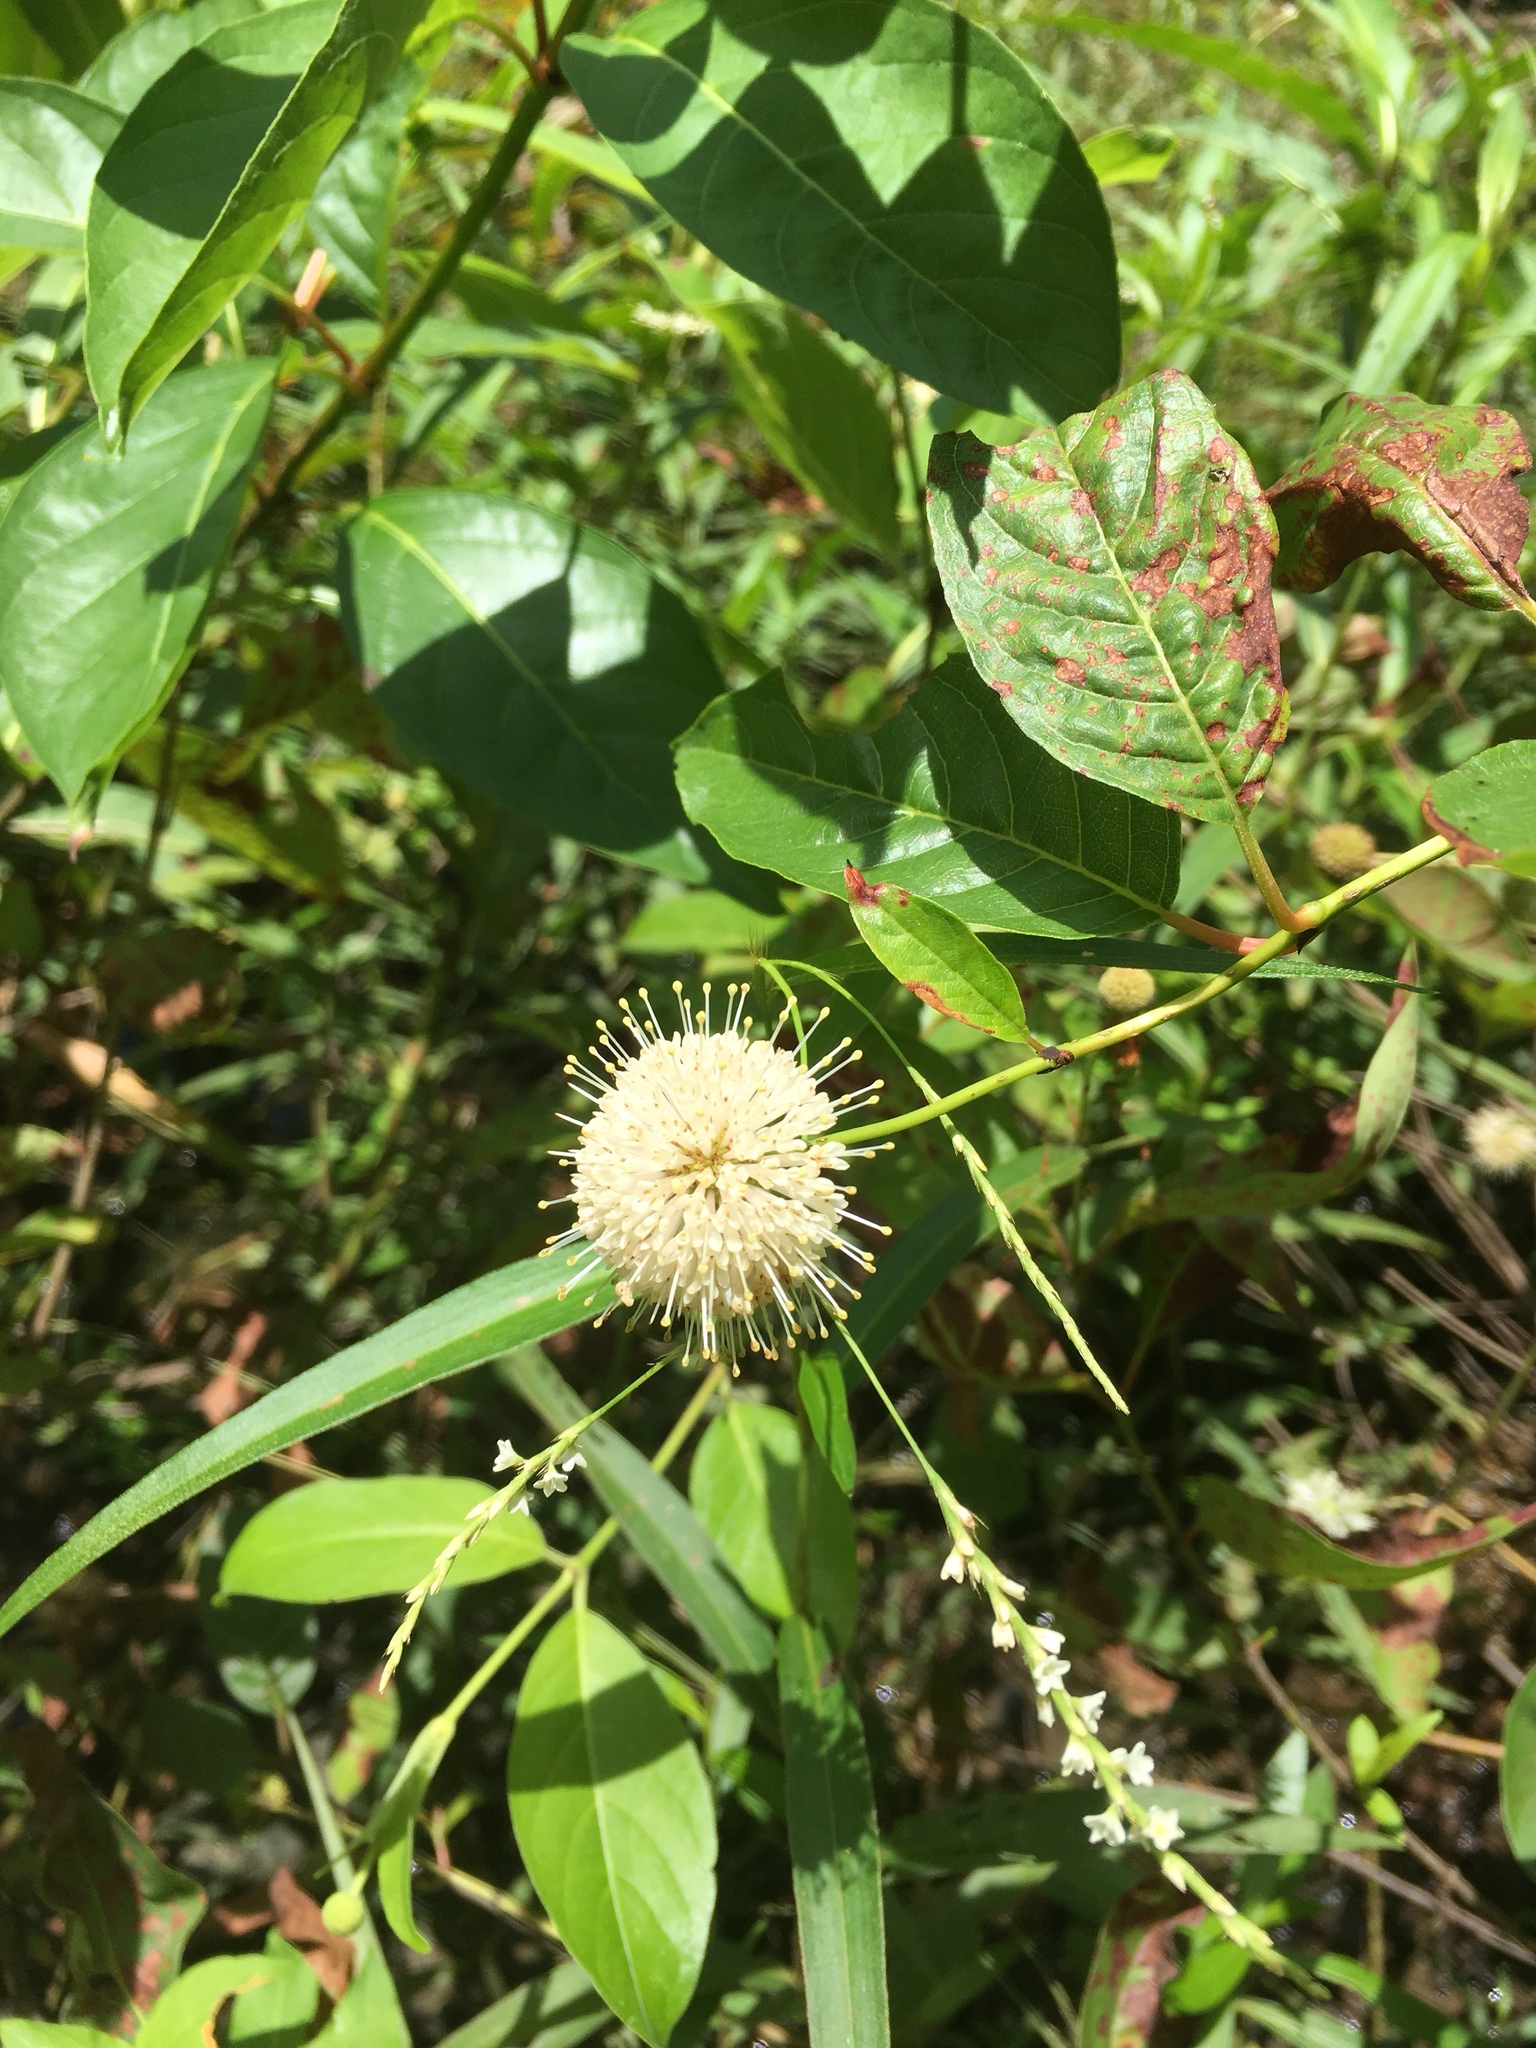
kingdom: Plantae
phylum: Tracheophyta
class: Magnoliopsida
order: Gentianales
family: Rubiaceae
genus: Cephalanthus
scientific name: Cephalanthus occidentalis
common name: Button-willow
